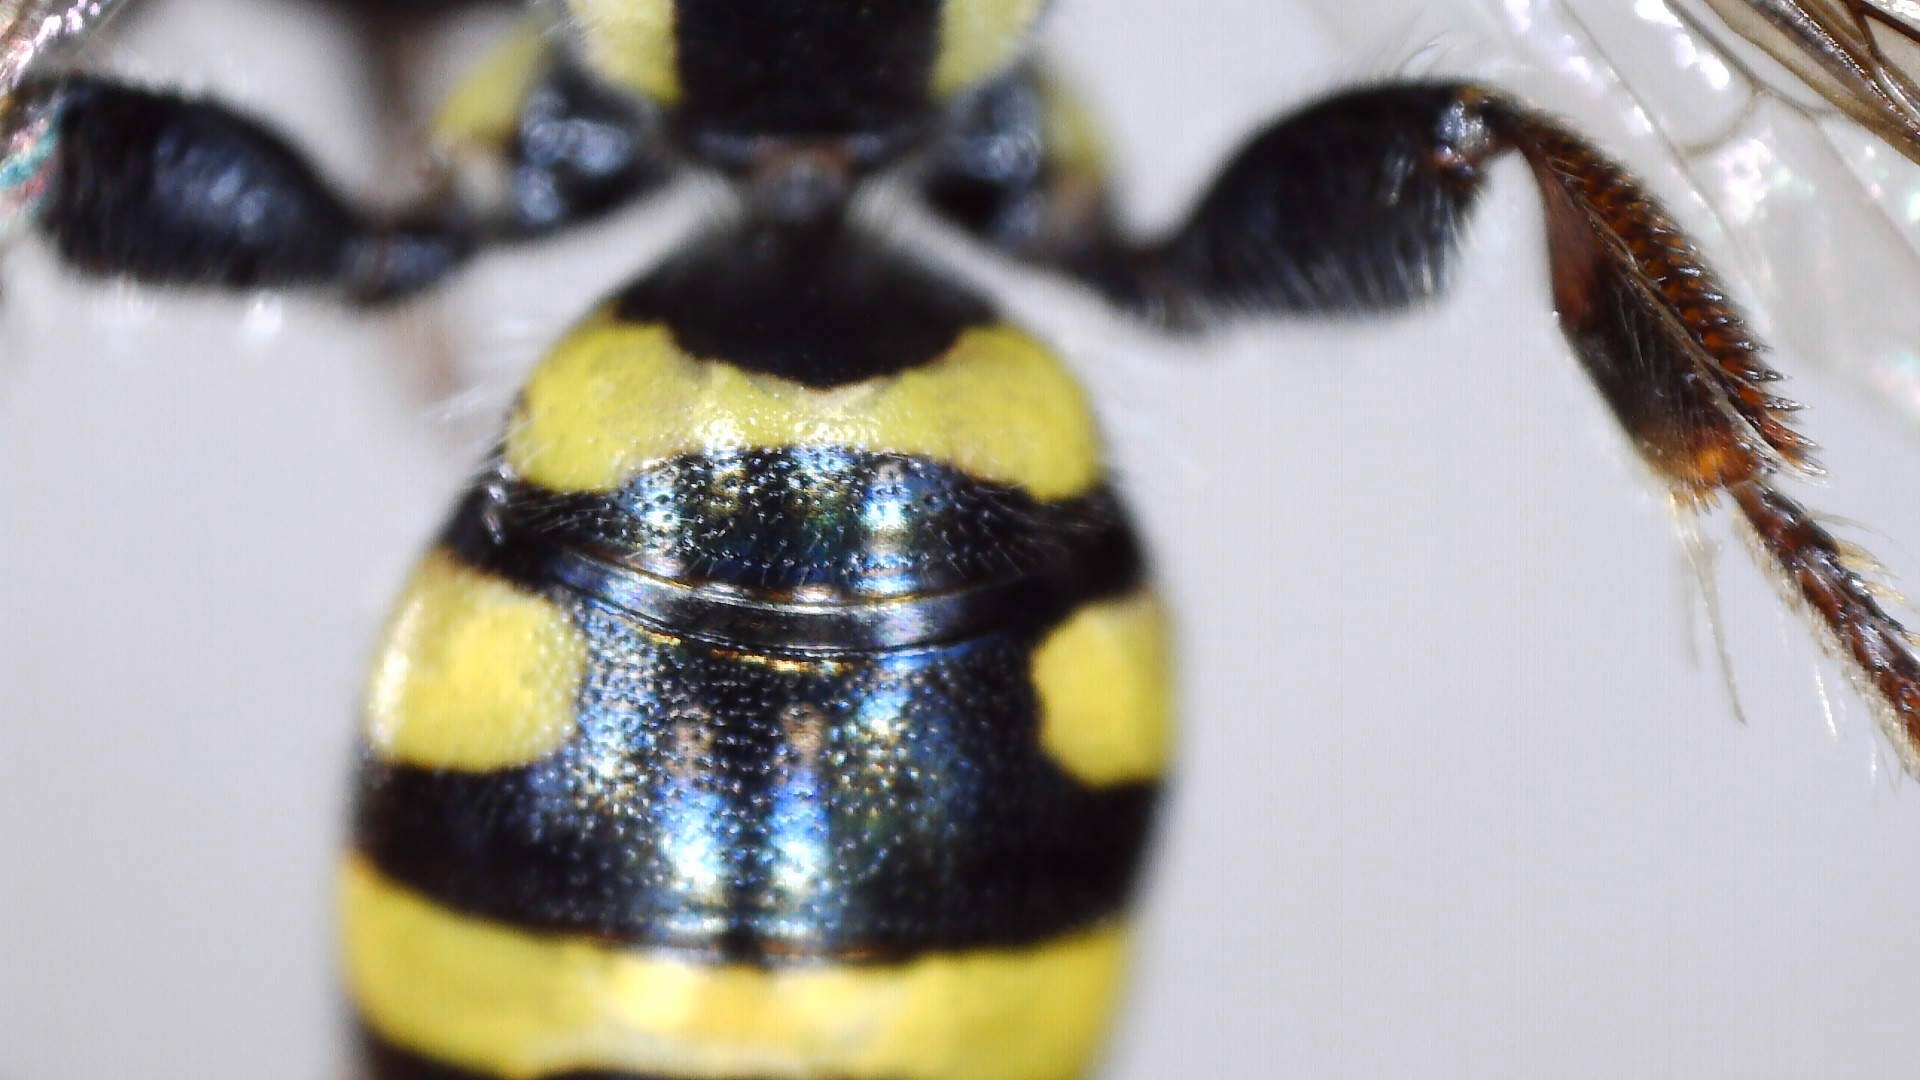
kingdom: Animalia
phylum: Arthropoda
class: Insecta
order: Hymenoptera
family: Tiphiidae
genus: Myzinum
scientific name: Myzinum maculatum
